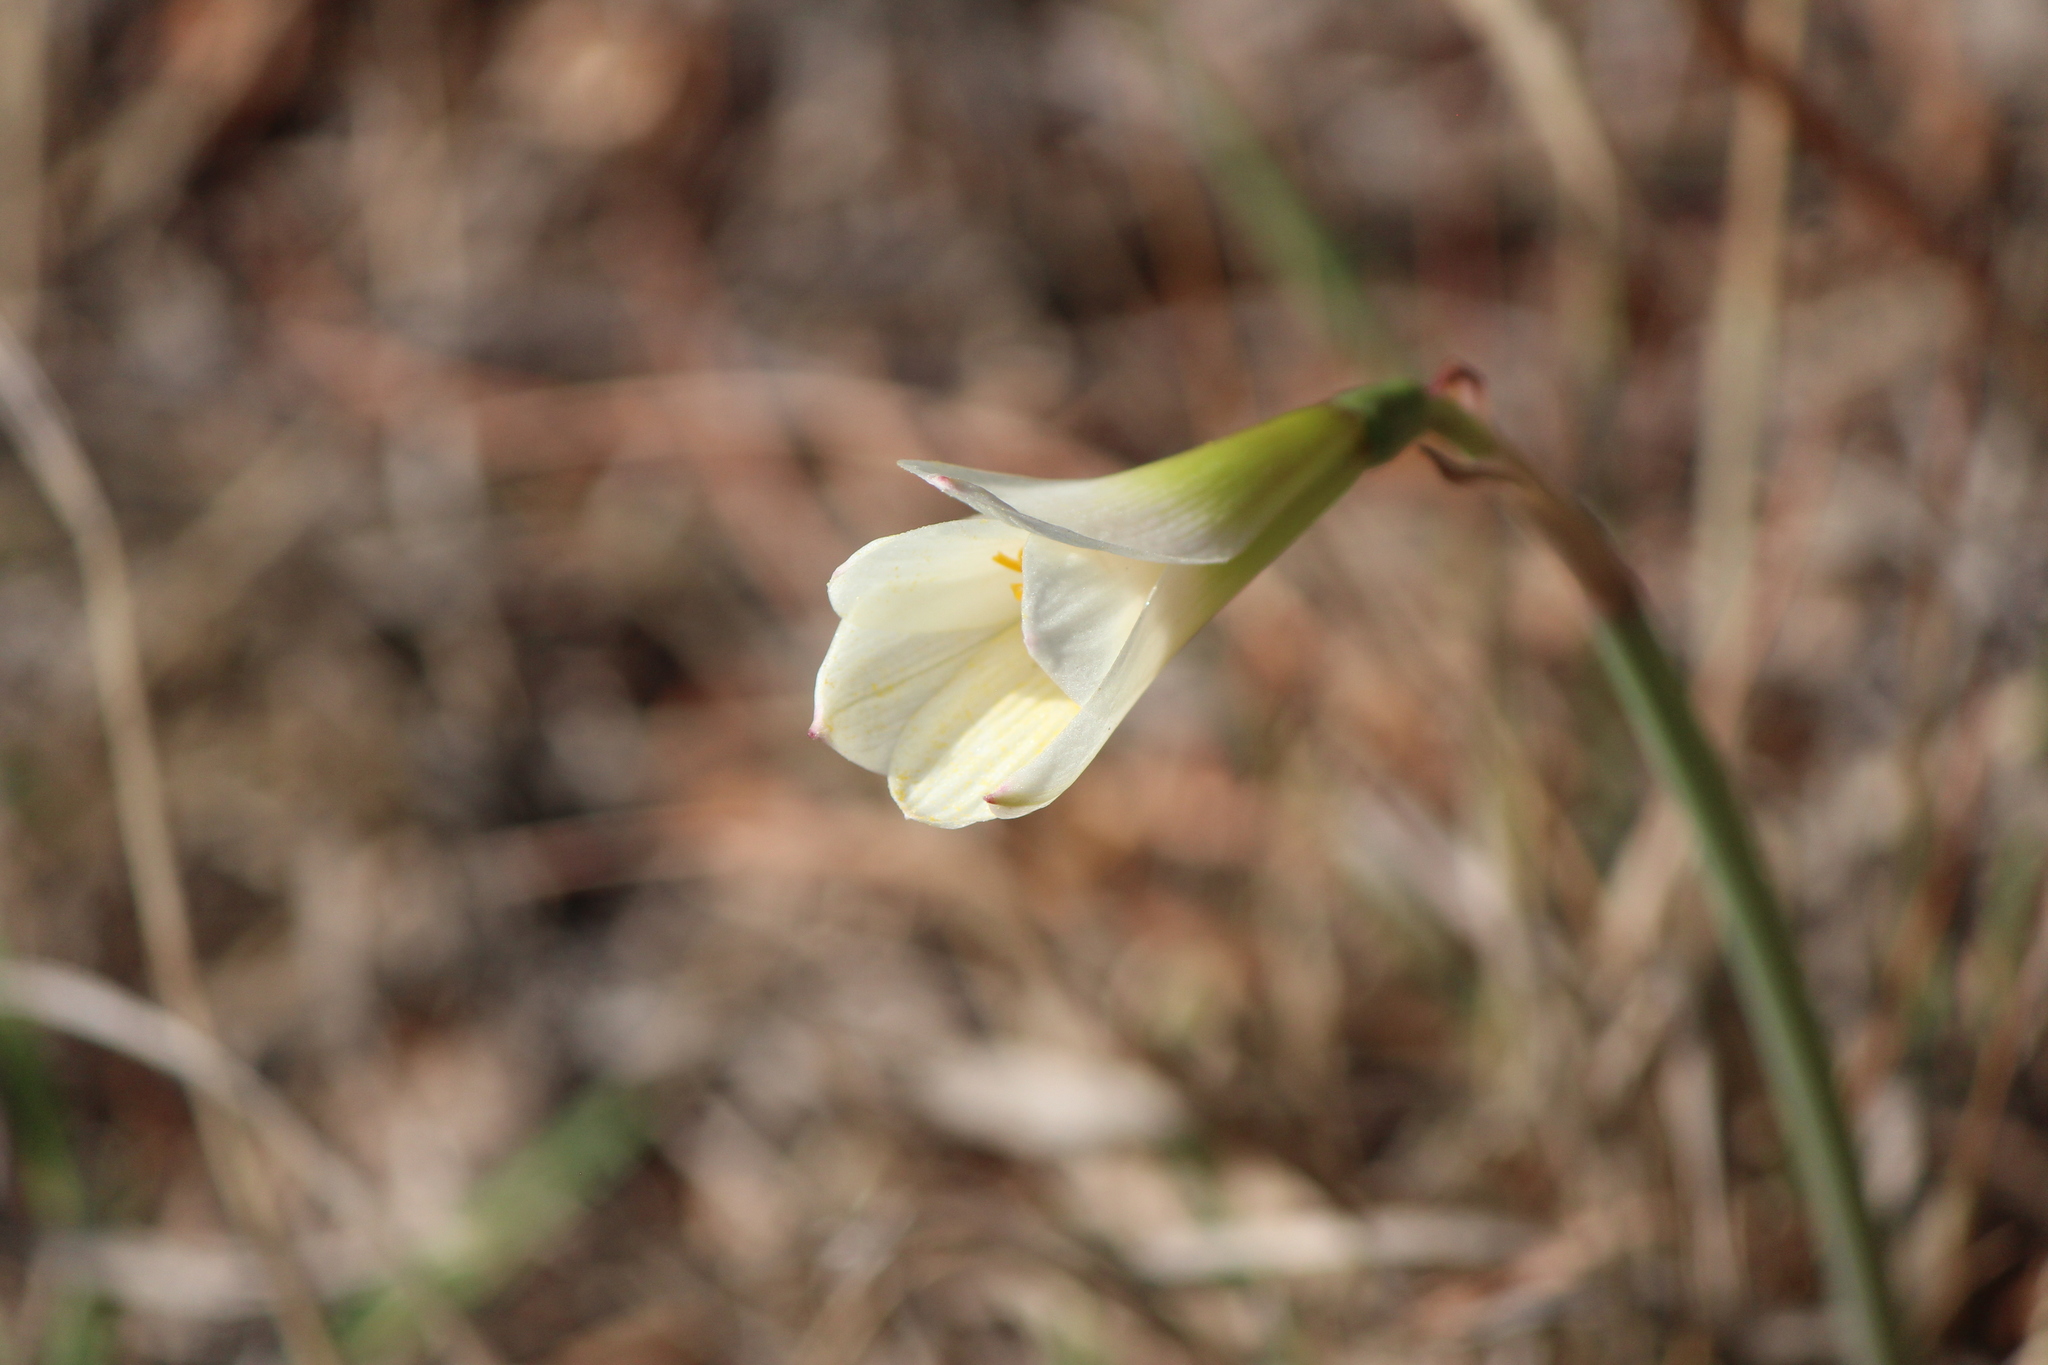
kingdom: Plantae
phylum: Tracheophyta
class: Liliopsida
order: Asparagales
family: Amaryllidaceae
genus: Zephyranthes
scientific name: Zephyranthes pseudoconcolor
